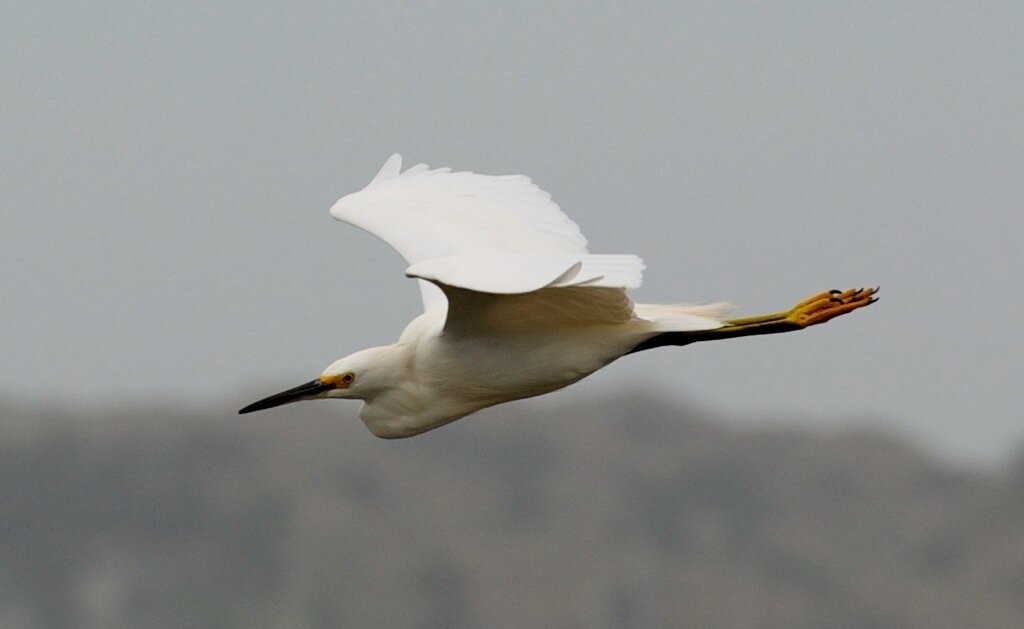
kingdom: Animalia
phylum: Chordata
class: Aves
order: Pelecaniformes
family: Ardeidae
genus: Egretta
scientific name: Egretta thula
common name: Snowy egret
